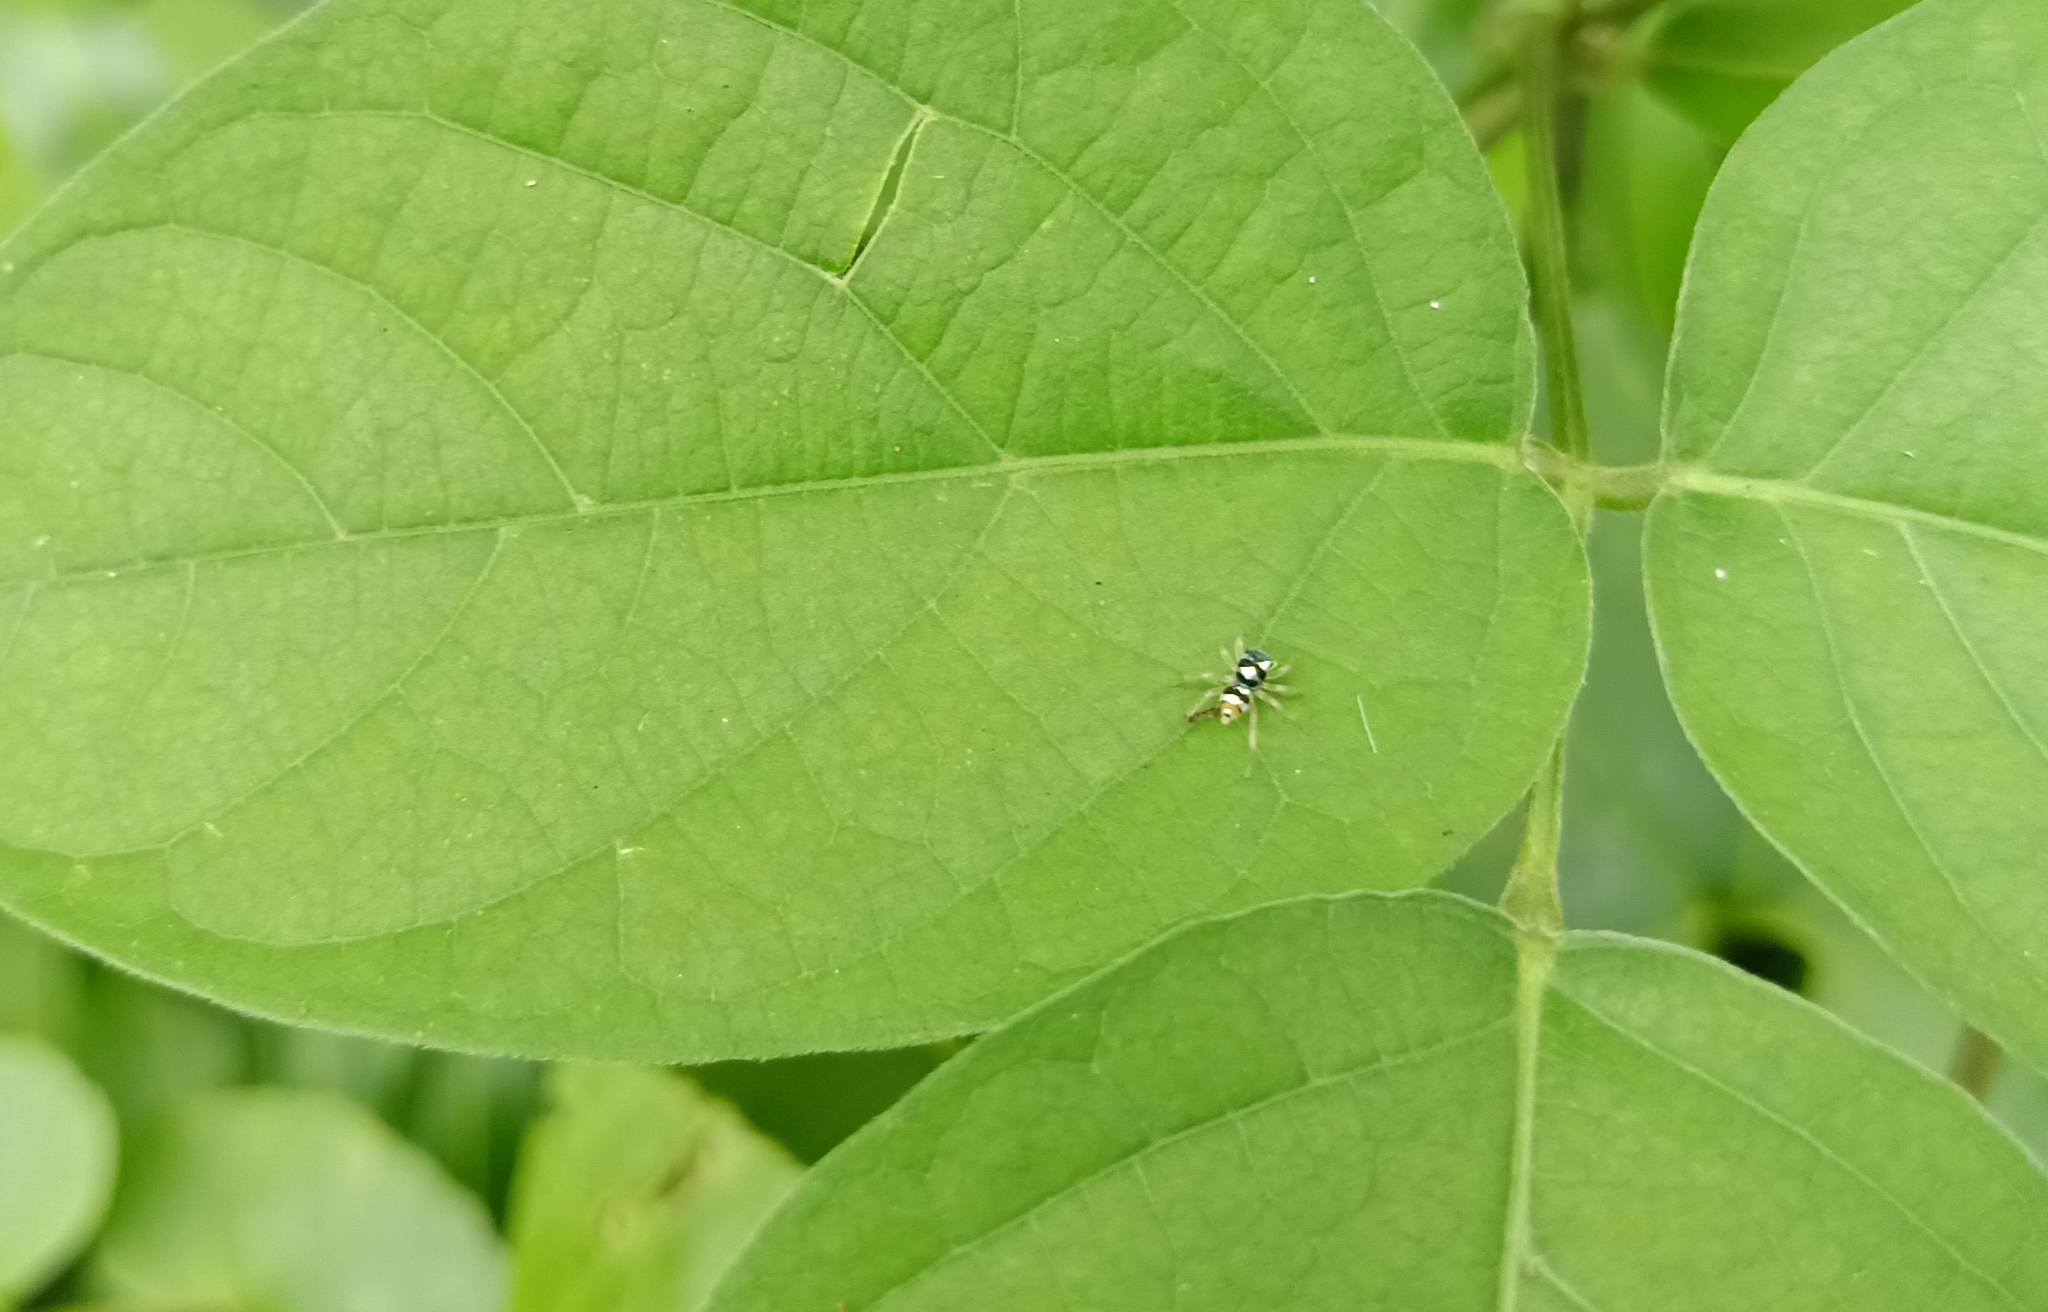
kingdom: Animalia
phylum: Arthropoda
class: Arachnida
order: Araneae
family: Salticidae
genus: Phintella
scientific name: Phintella vittata
